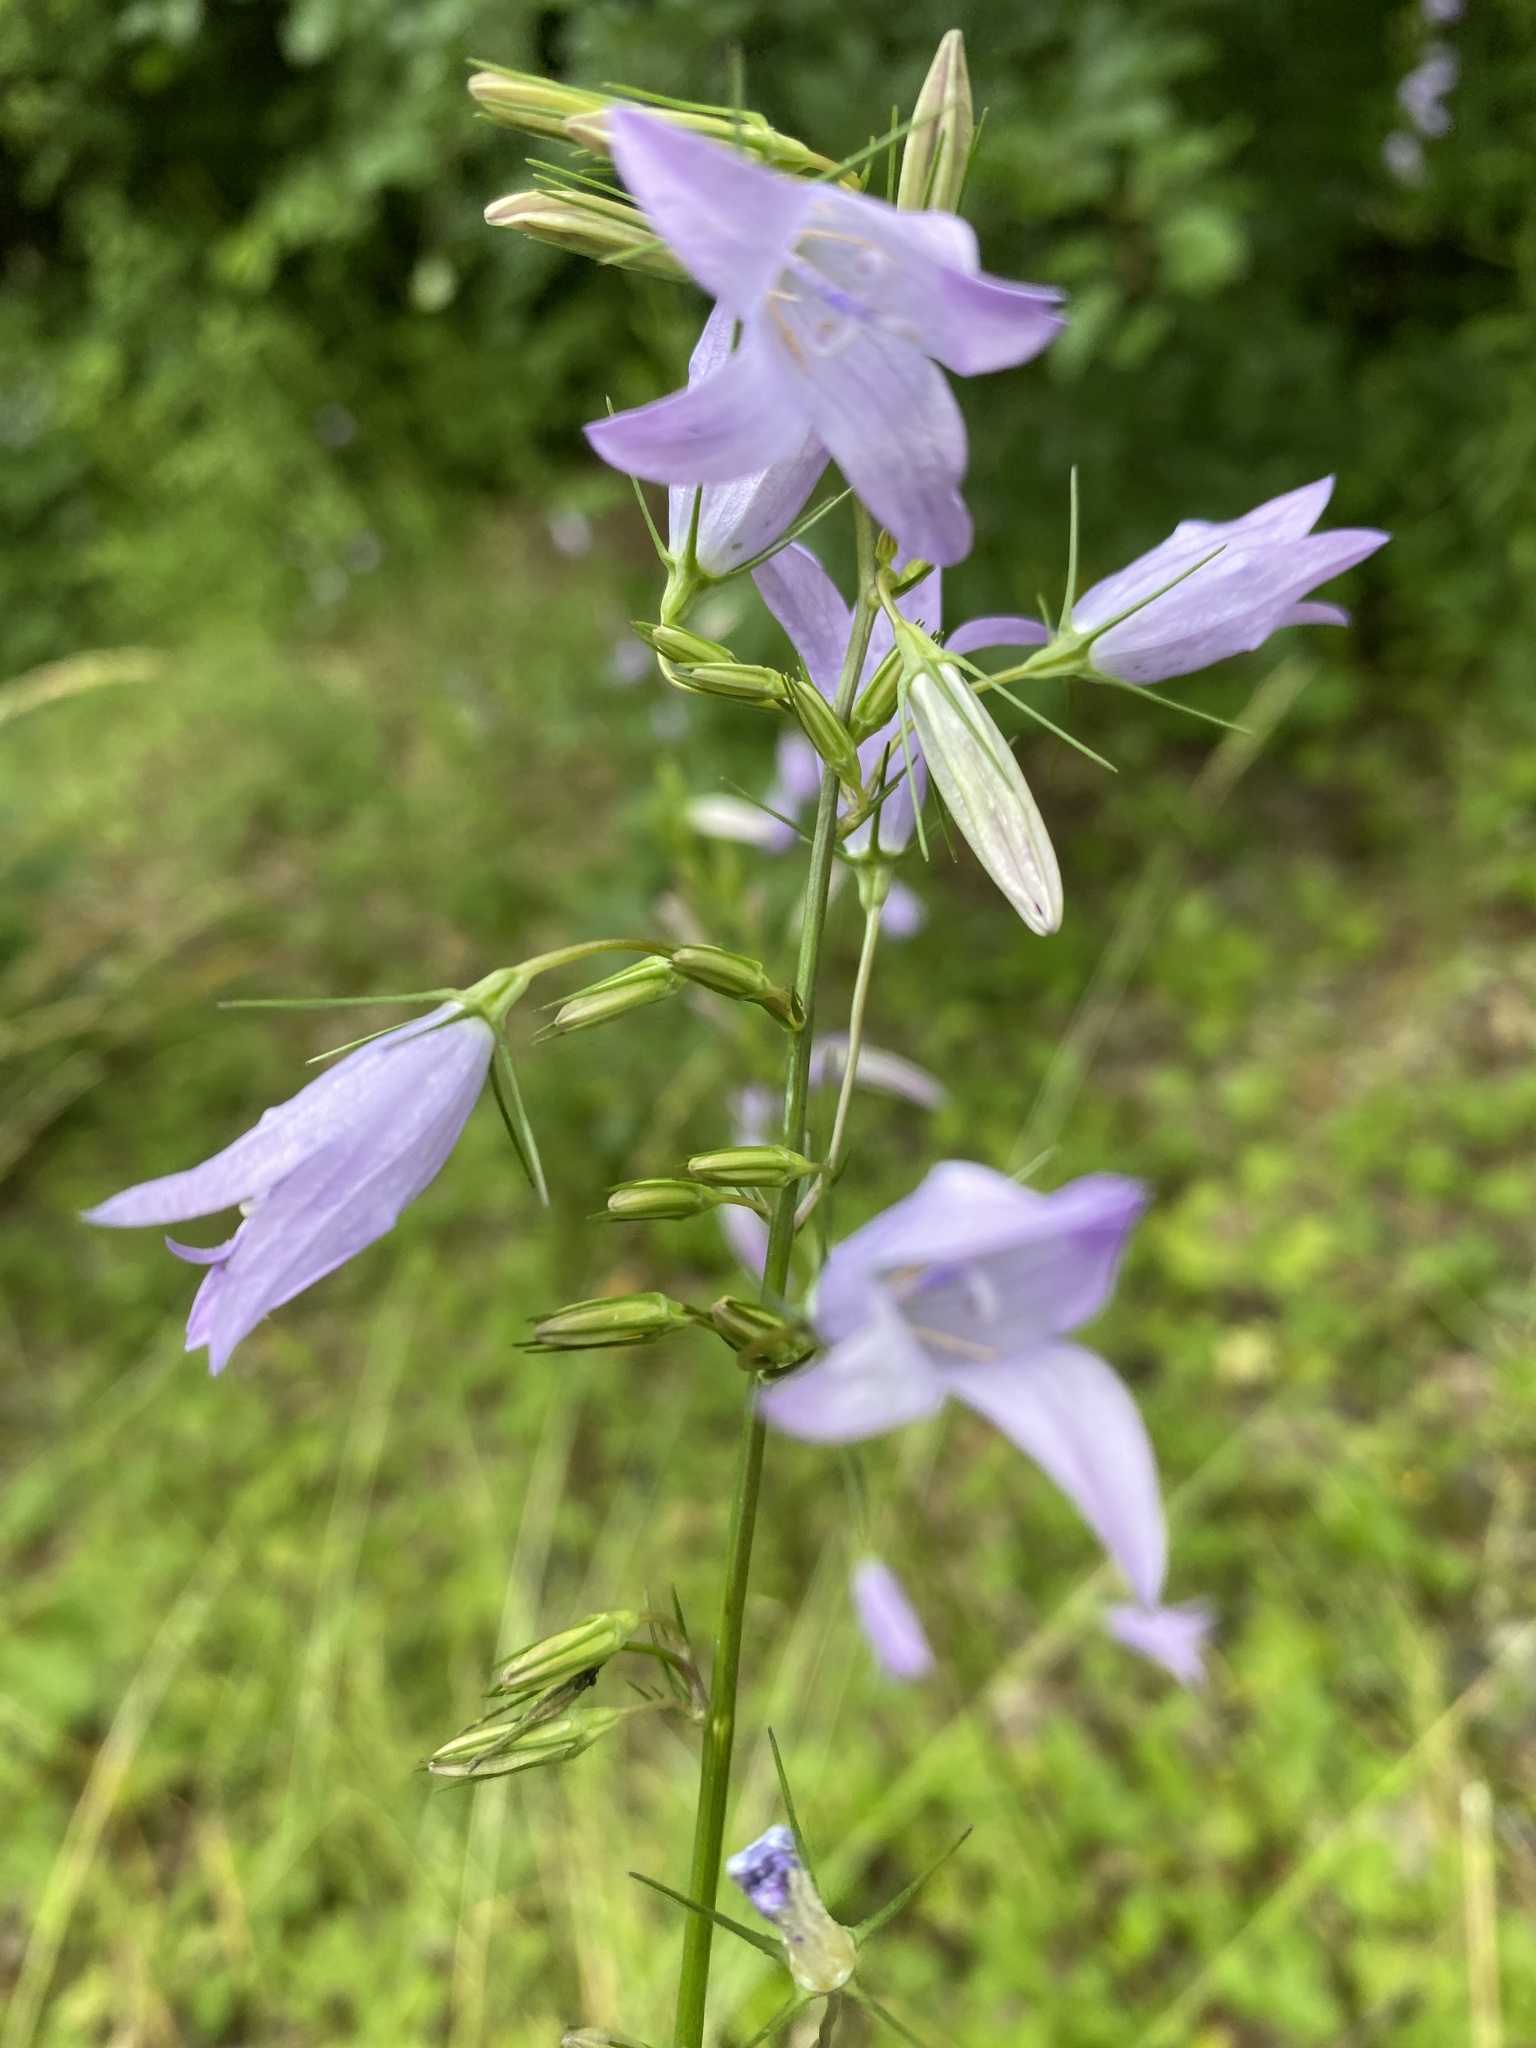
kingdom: Plantae
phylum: Tracheophyta
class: Magnoliopsida
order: Asterales
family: Campanulaceae
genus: Campanula
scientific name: Campanula rapunculus
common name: Rampion bellflower
